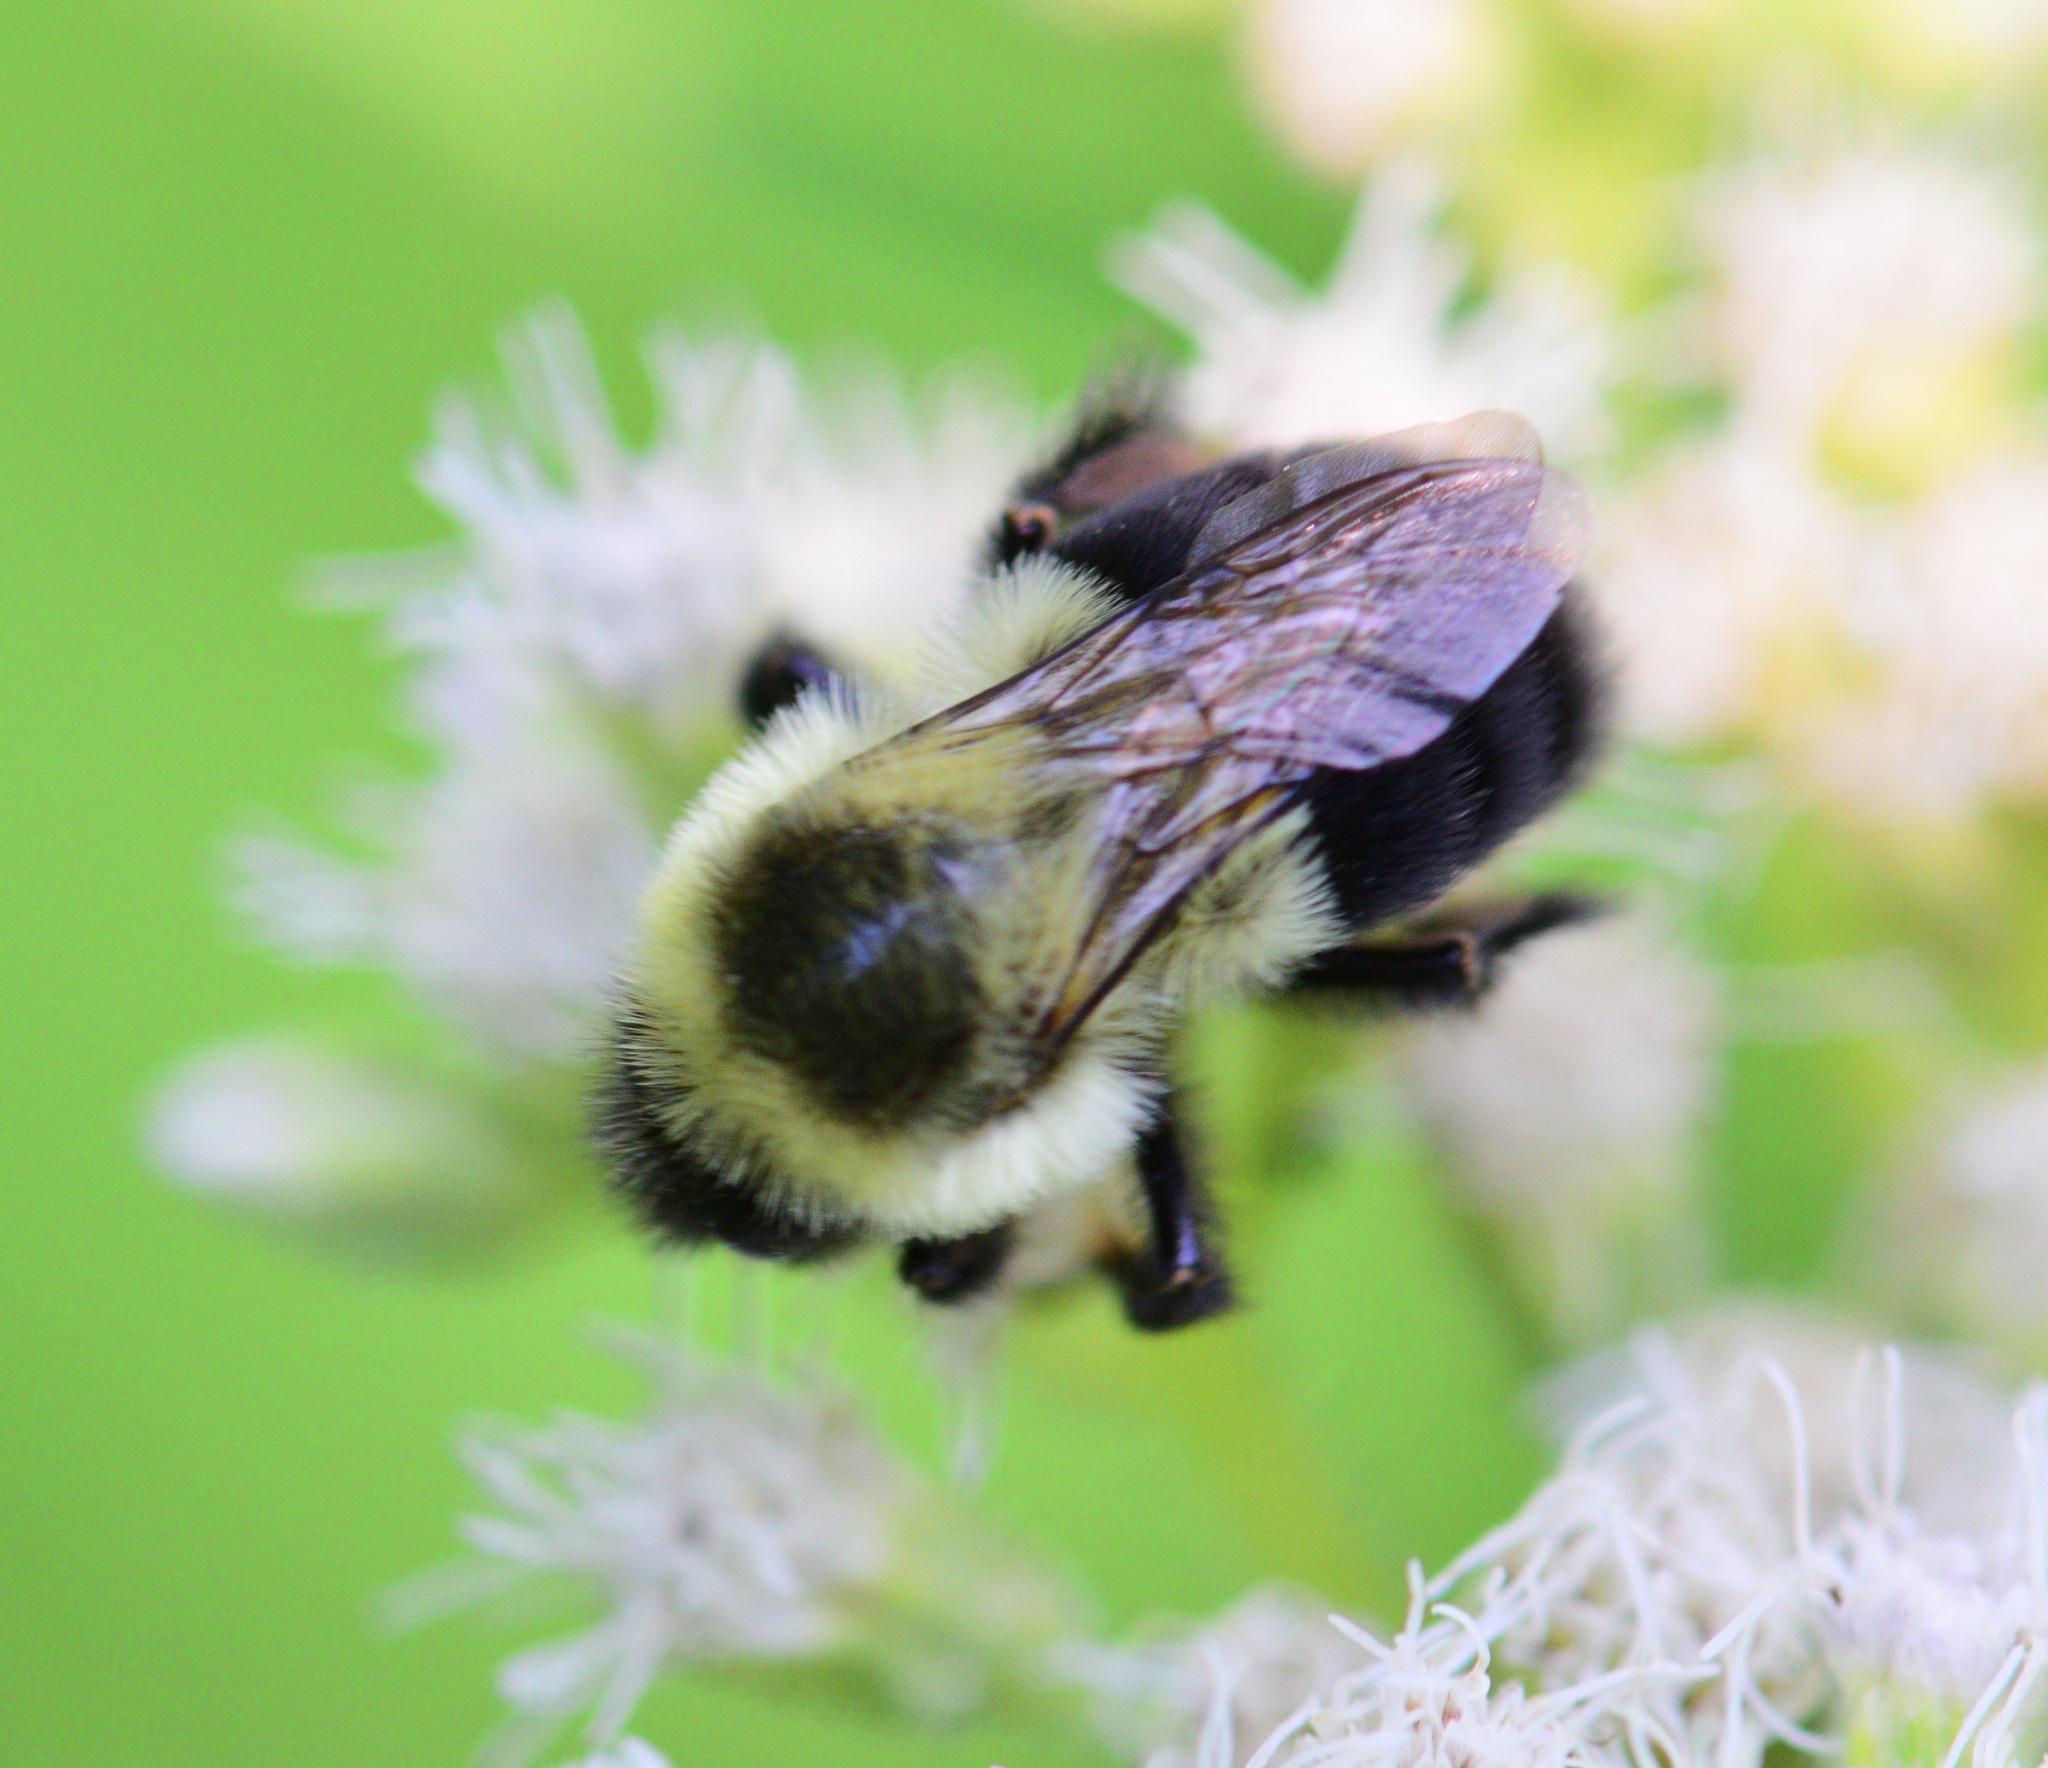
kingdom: Animalia
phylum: Arthropoda
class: Insecta
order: Hymenoptera
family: Apidae
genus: Bombus
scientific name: Bombus impatiens
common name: Common eastern bumble bee
